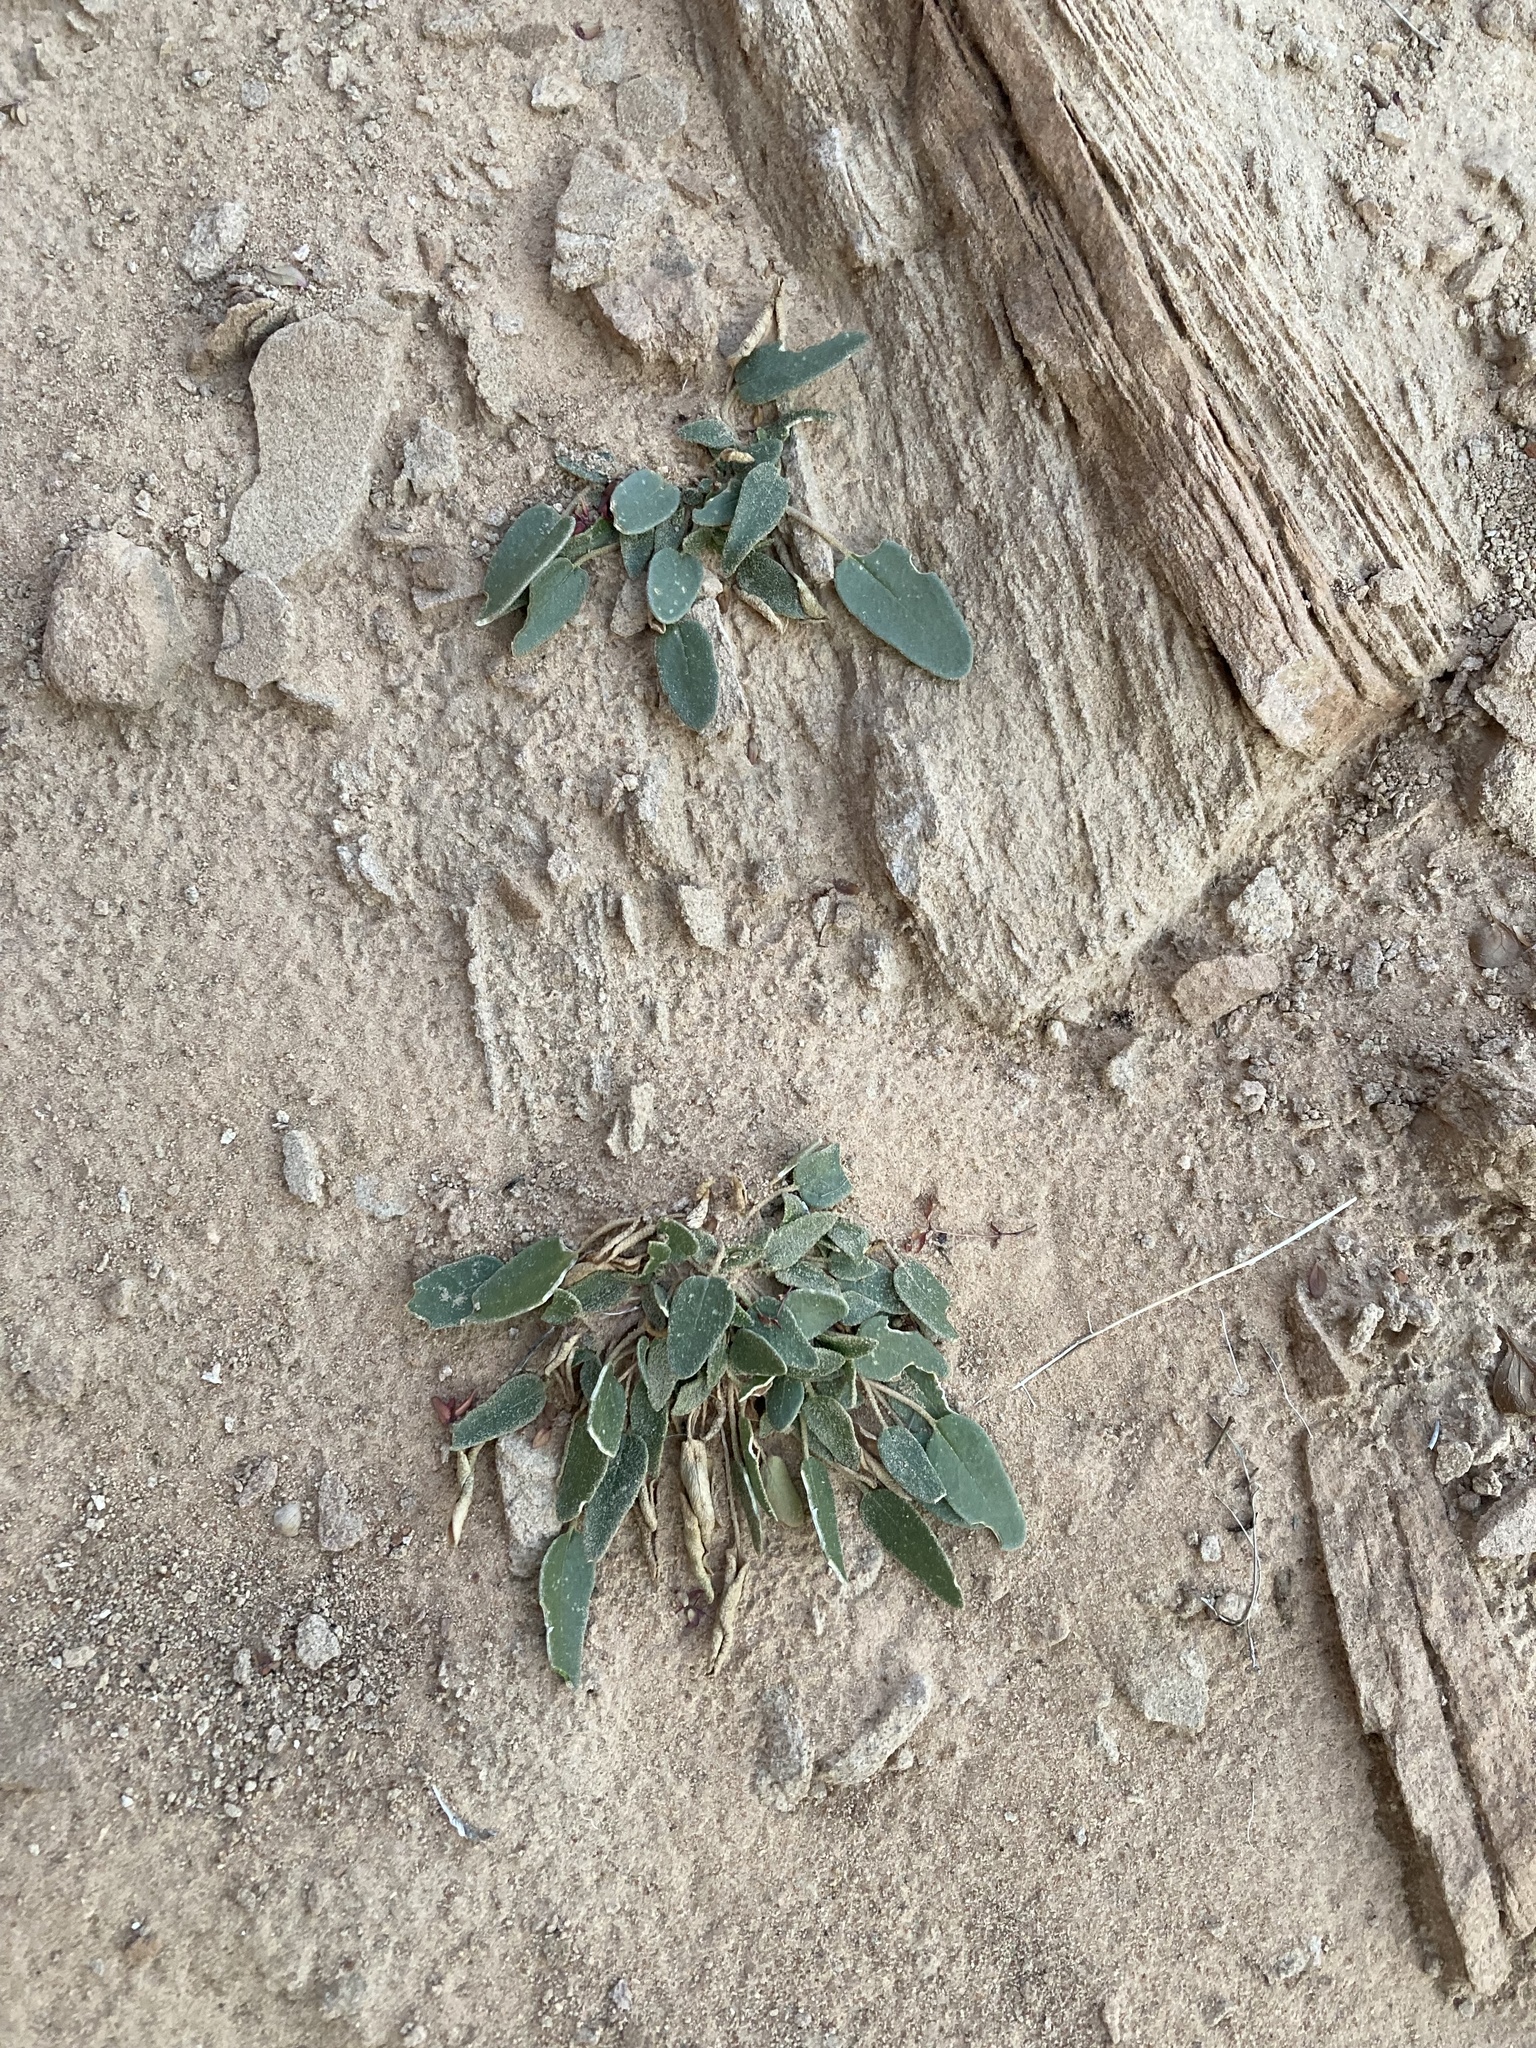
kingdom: Plantae
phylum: Tracheophyta
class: Magnoliopsida
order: Caryophyllales
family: Nyctaginaceae
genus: Abronia
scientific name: Abronia elliptica
